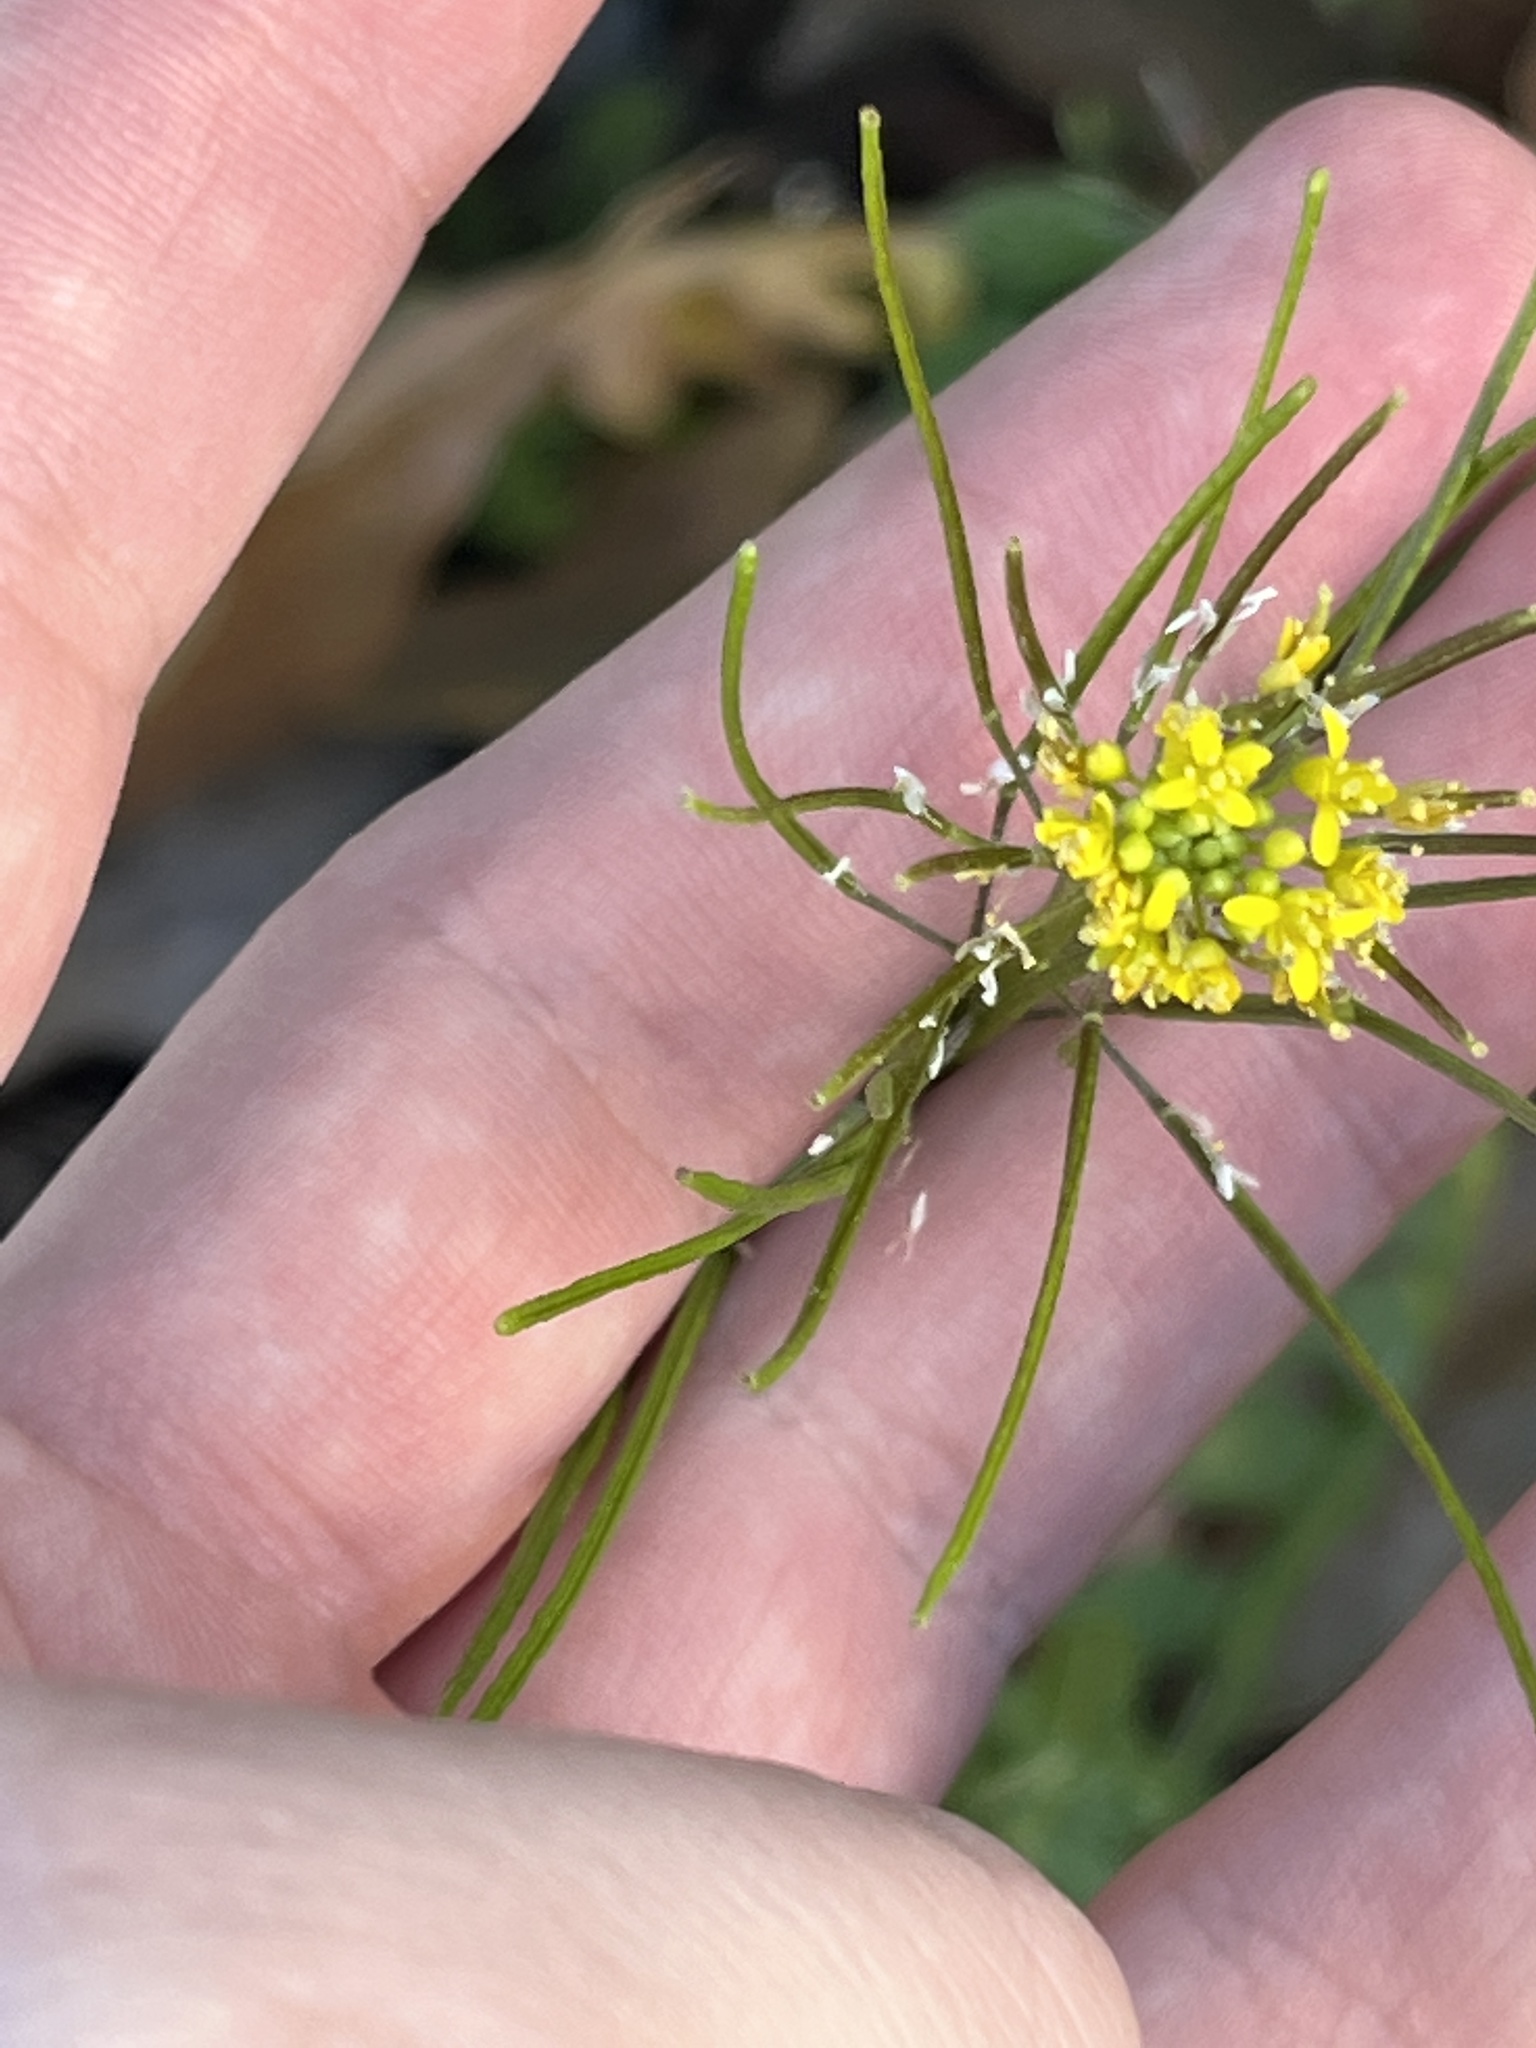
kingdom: Plantae
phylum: Tracheophyta
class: Magnoliopsida
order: Brassicales
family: Brassicaceae
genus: Sisymbrium
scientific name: Sisymbrium irio
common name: London rocket
